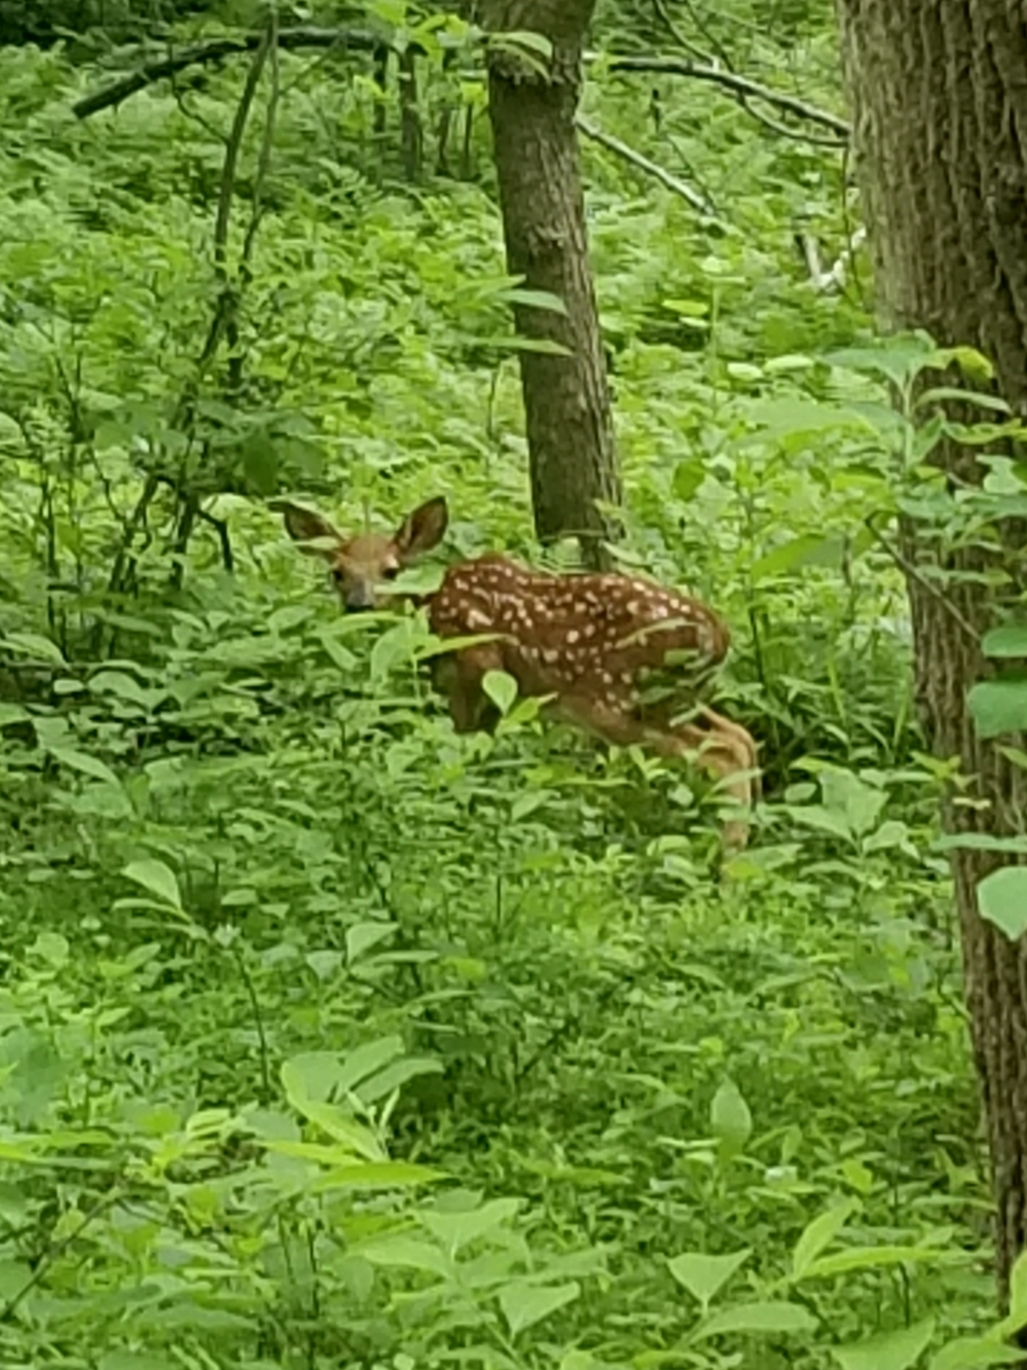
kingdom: Animalia
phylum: Chordata
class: Mammalia
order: Artiodactyla
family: Cervidae
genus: Odocoileus
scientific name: Odocoileus virginianus
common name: White-tailed deer
